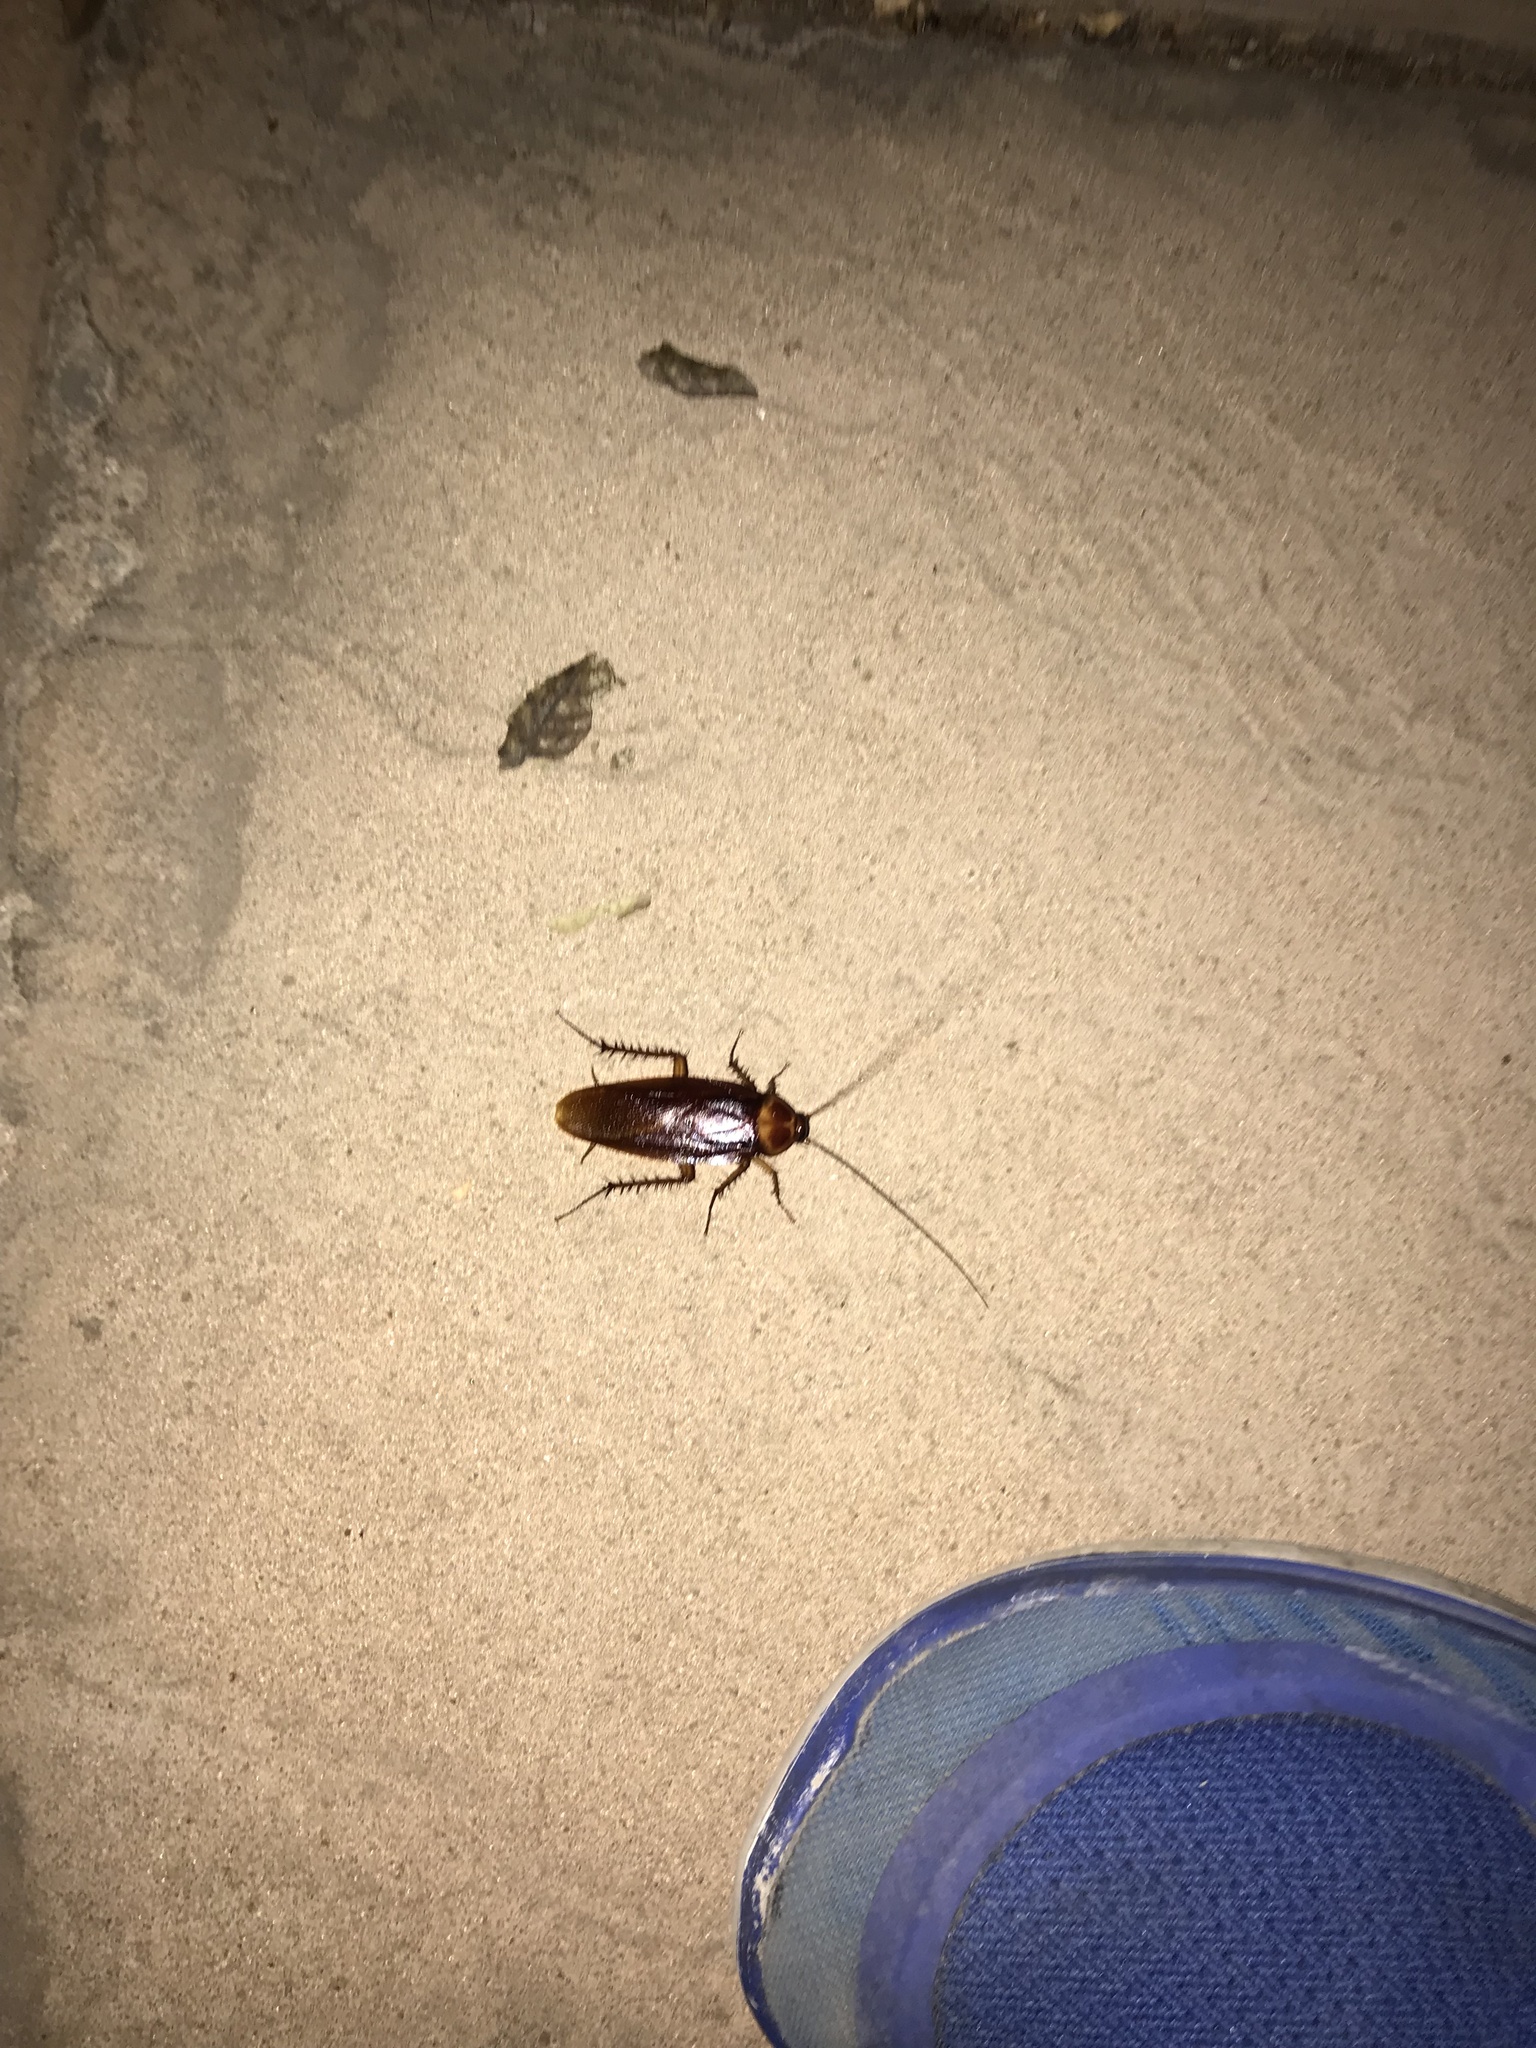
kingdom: Animalia
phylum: Arthropoda
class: Insecta
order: Blattodea
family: Blattidae
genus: Periplaneta
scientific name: Periplaneta americana
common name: American cockroach
